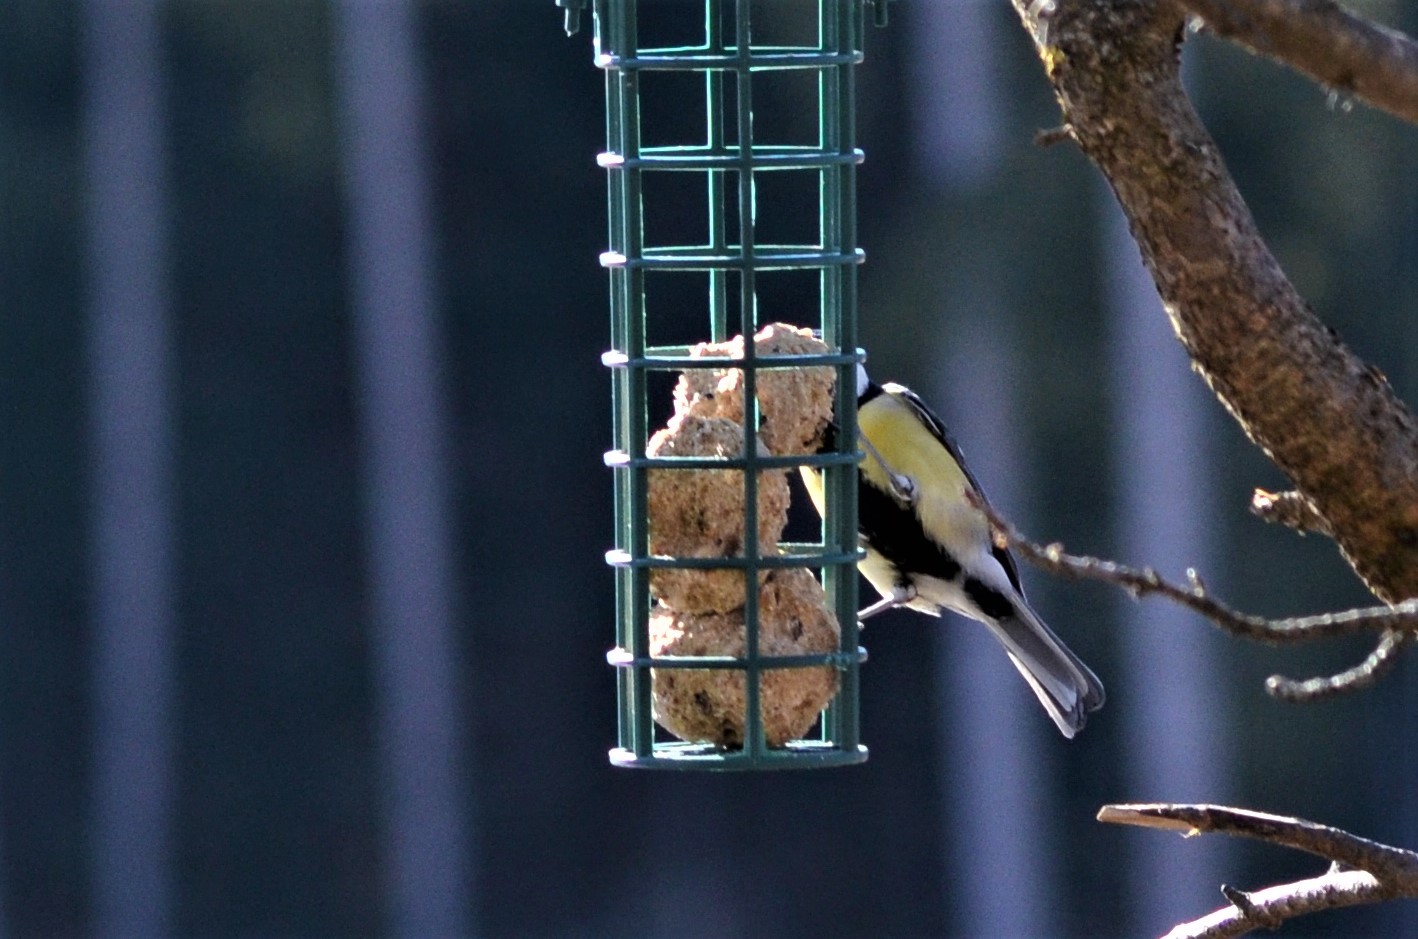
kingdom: Animalia
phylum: Chordata
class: Aves
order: Passeriformes
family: Paridae
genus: Parus
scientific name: Parus major
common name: Great tit
